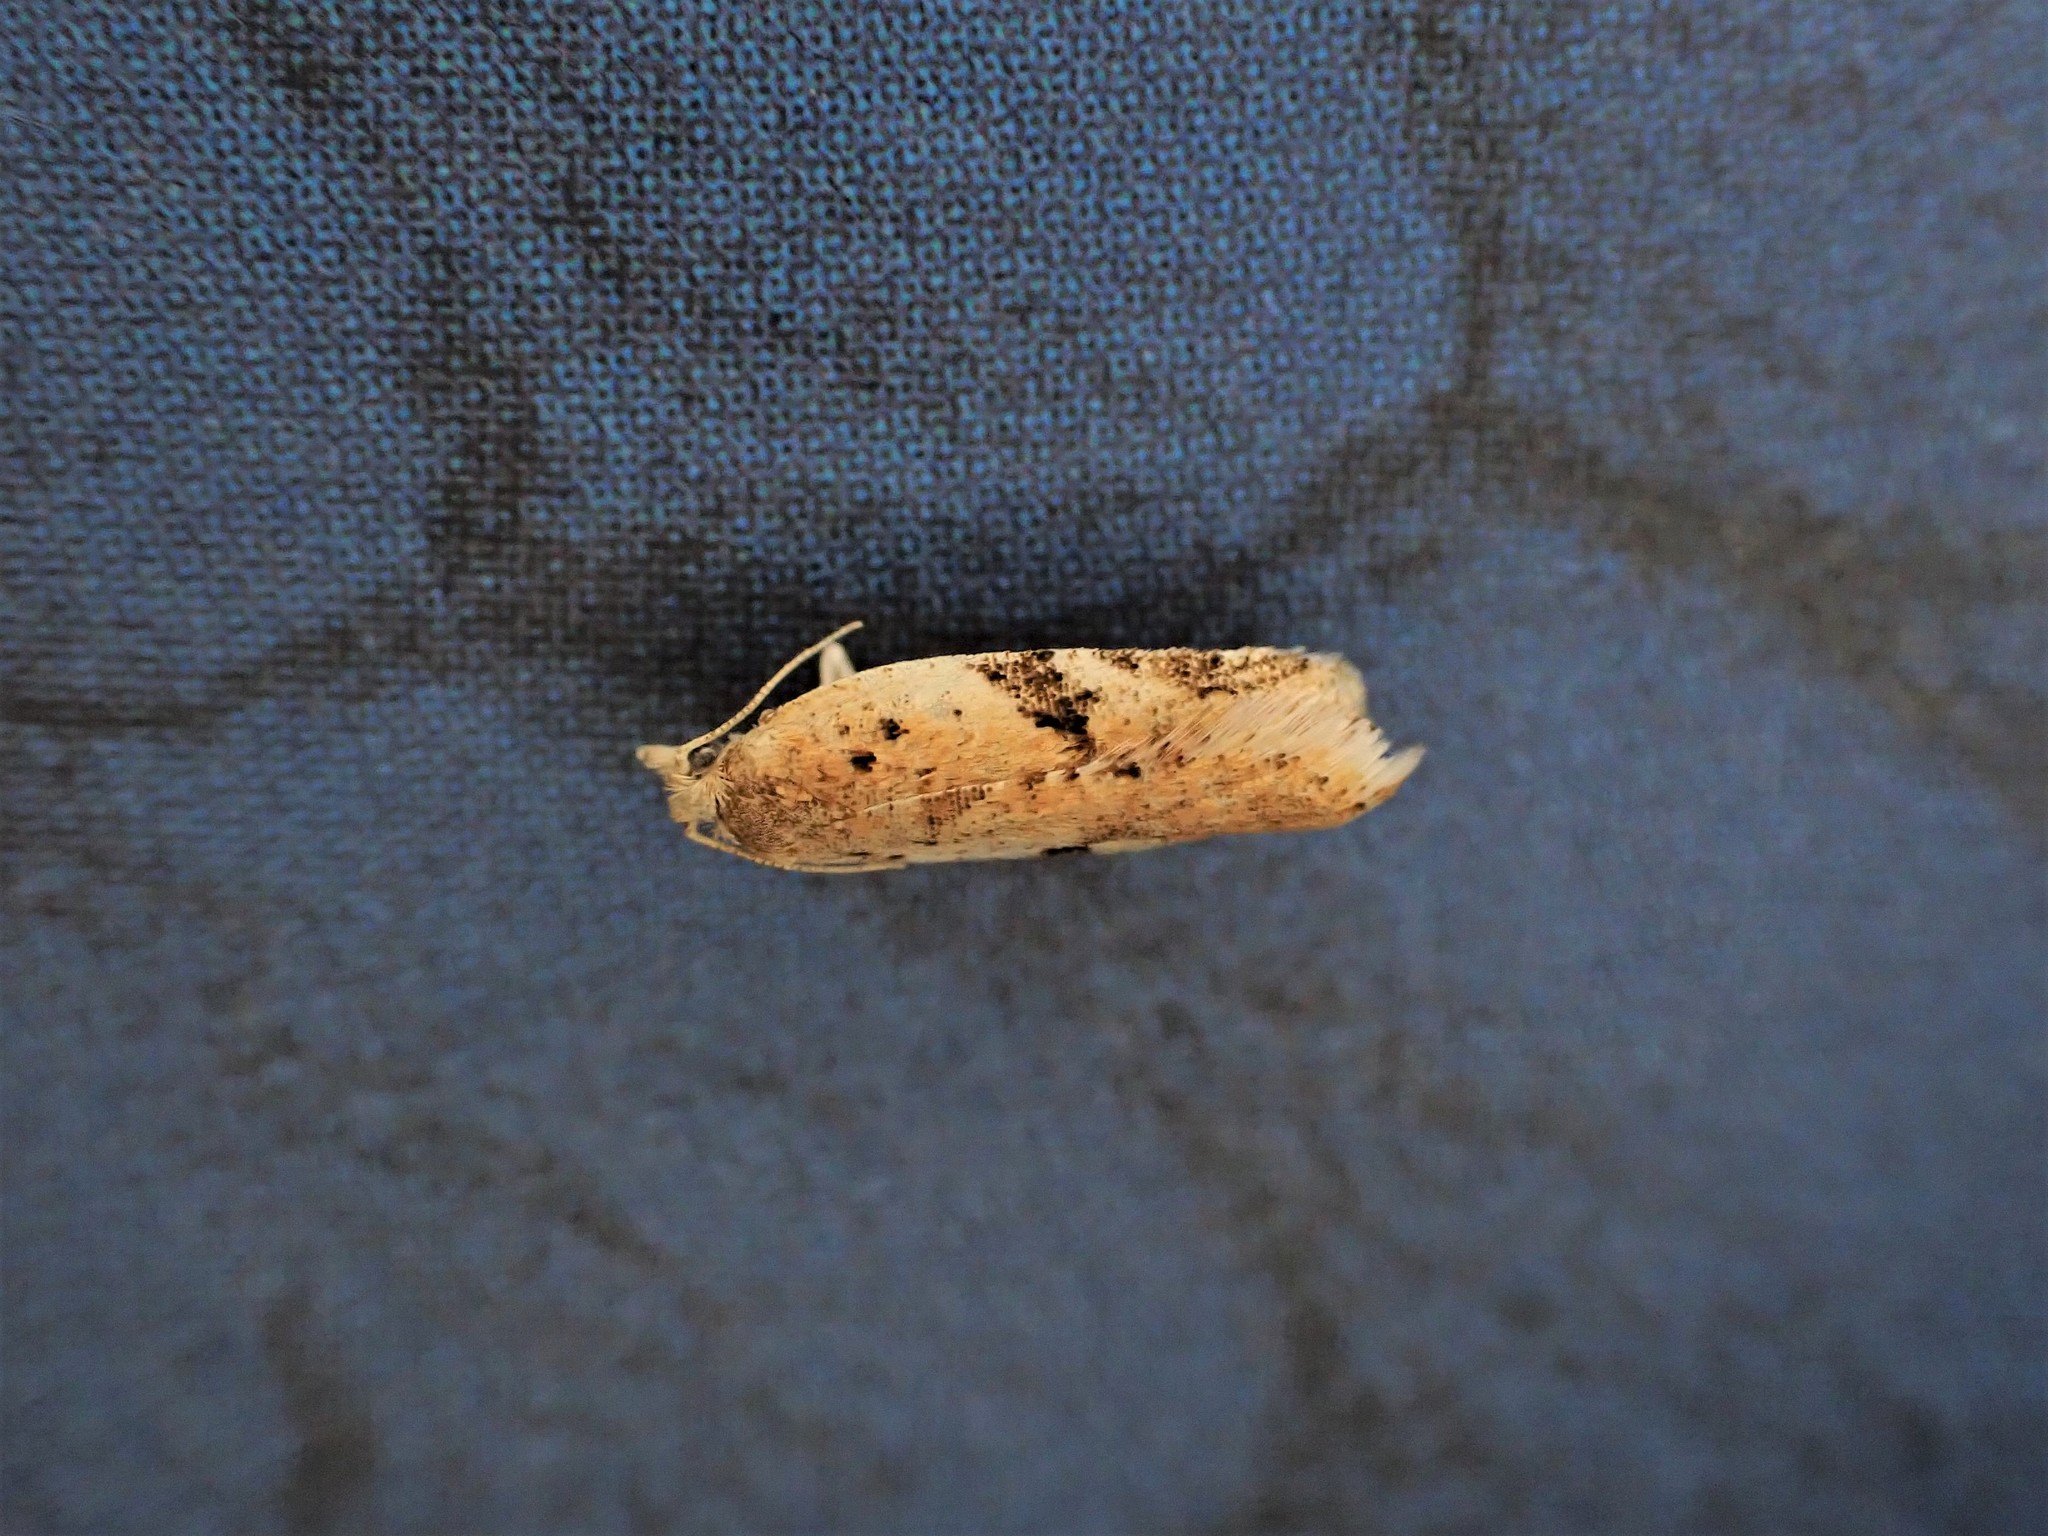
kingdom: Animalia
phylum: Arthropoda
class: Insecta
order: Lepidoptera
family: Tortricidae
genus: Capua
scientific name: Capua semiferana
